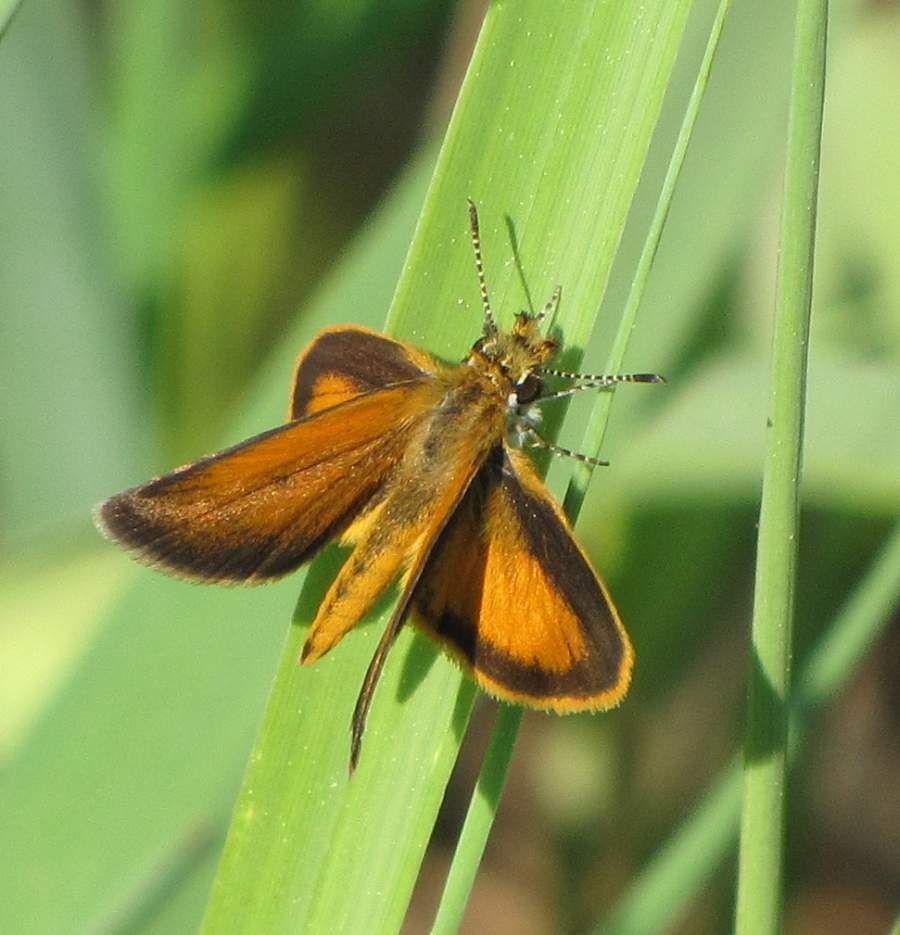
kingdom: Animalia
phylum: Arthropoda
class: Insecta
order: Lepidoptera
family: Hesperiidae
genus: Ancyloxypha
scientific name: Ancyloxypha numitor
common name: Least skipper
